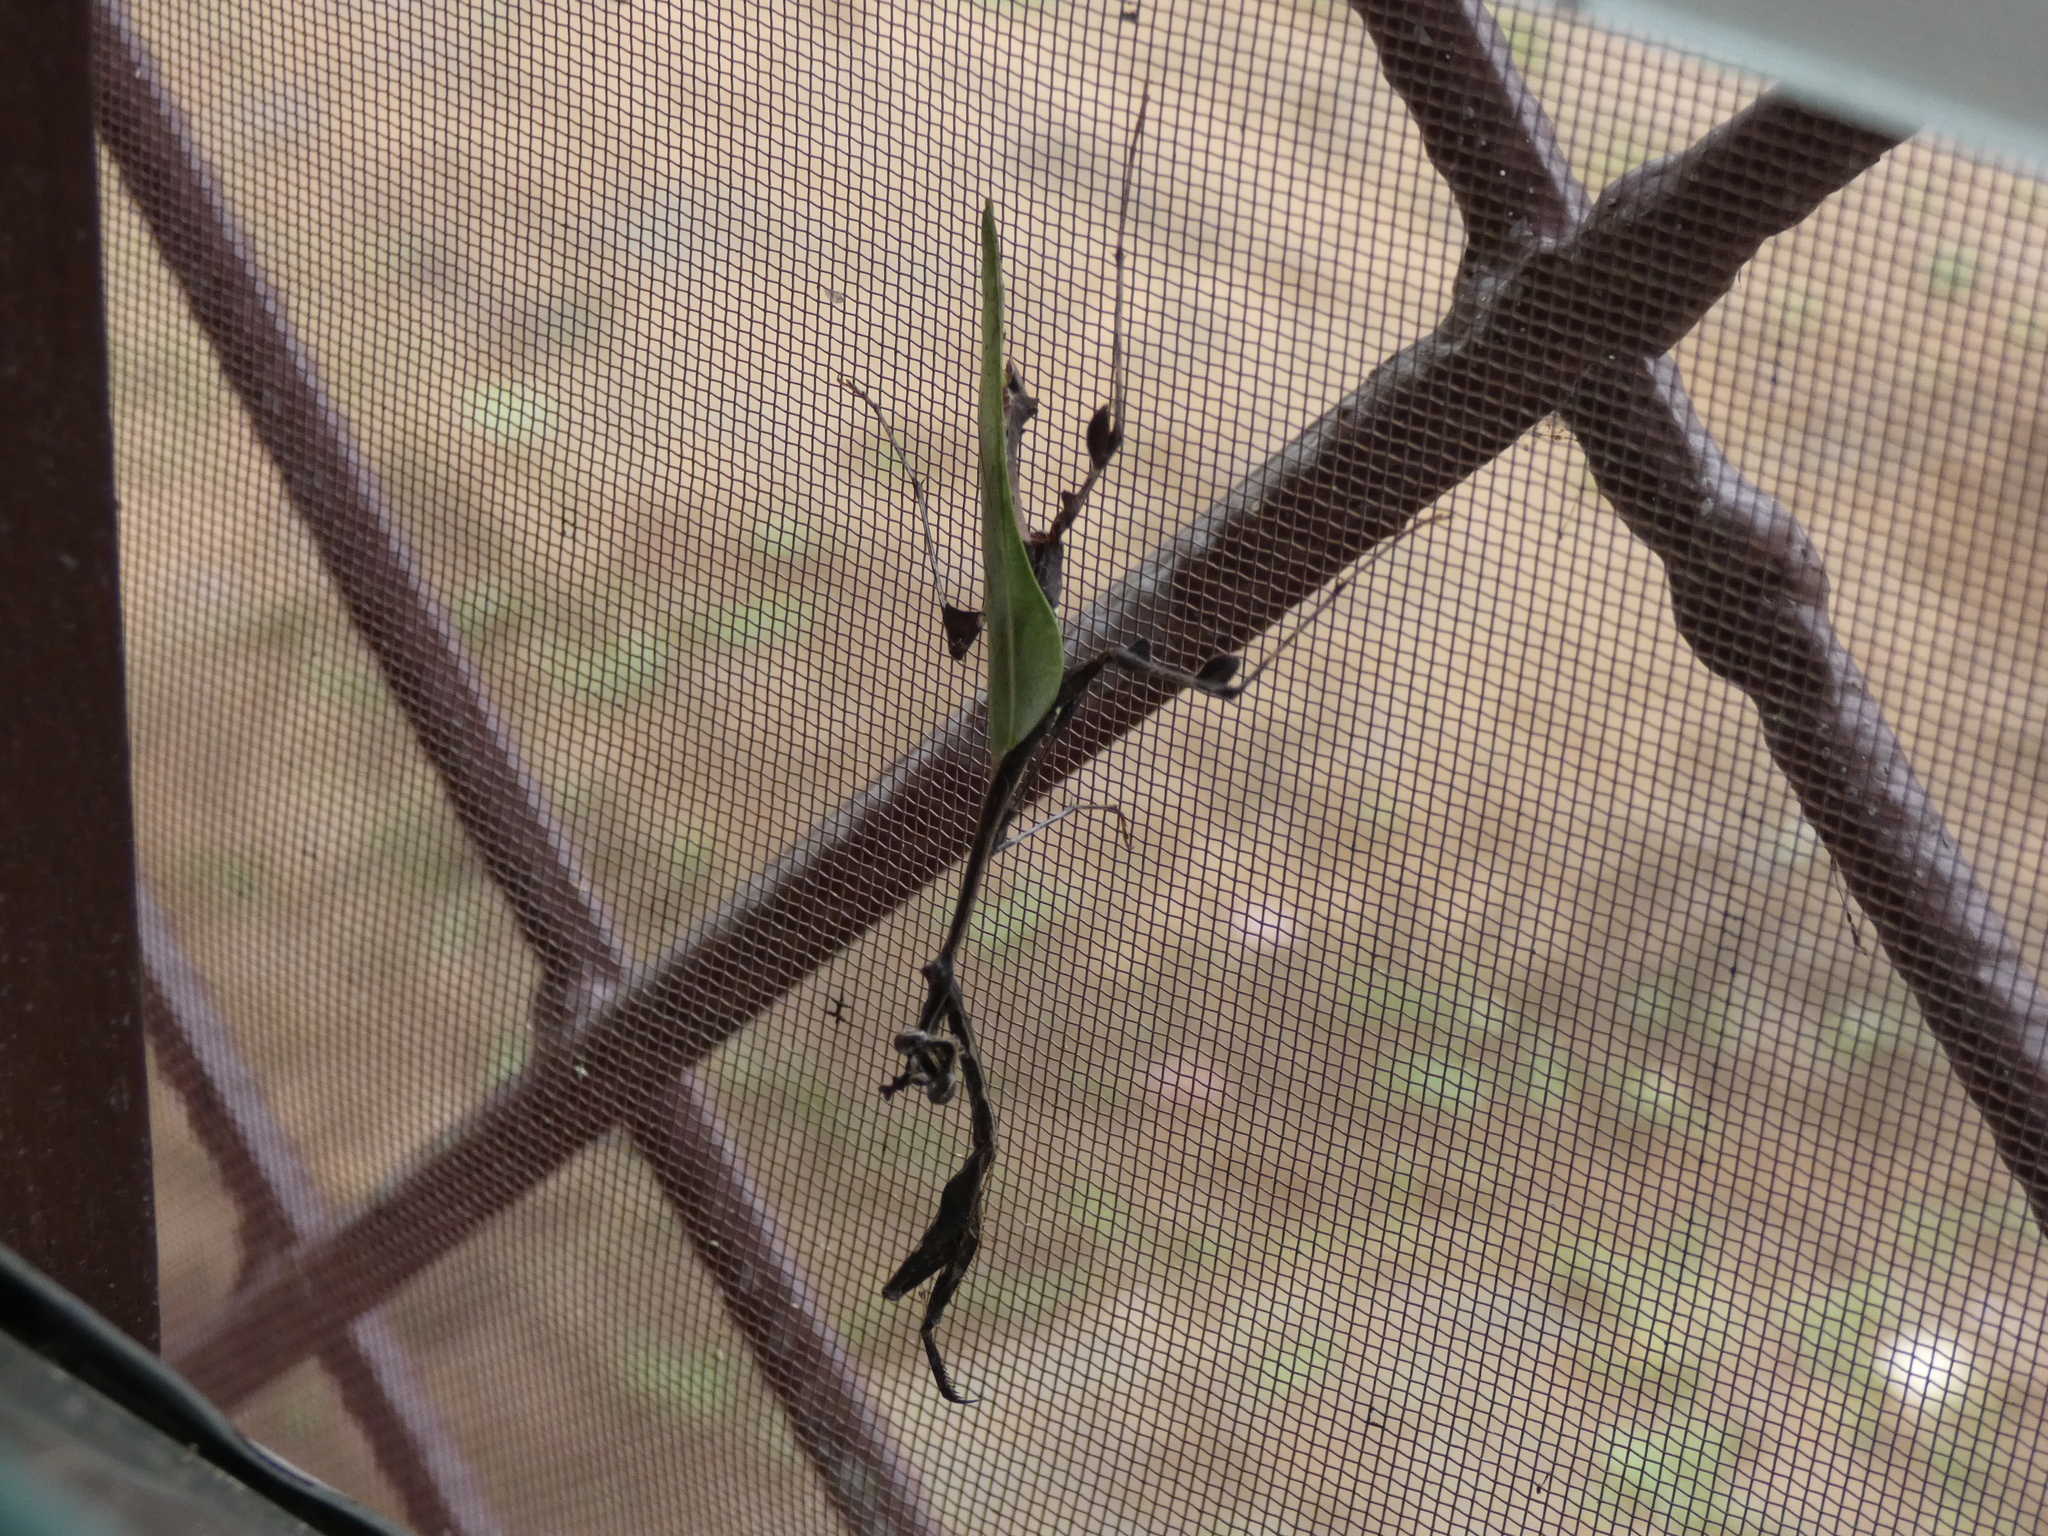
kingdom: Animalia
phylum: Arthropoda
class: Insecta
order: Mantodea
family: Hymenopodidae
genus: Sibylla
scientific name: Sibylla vanderplaetseni
